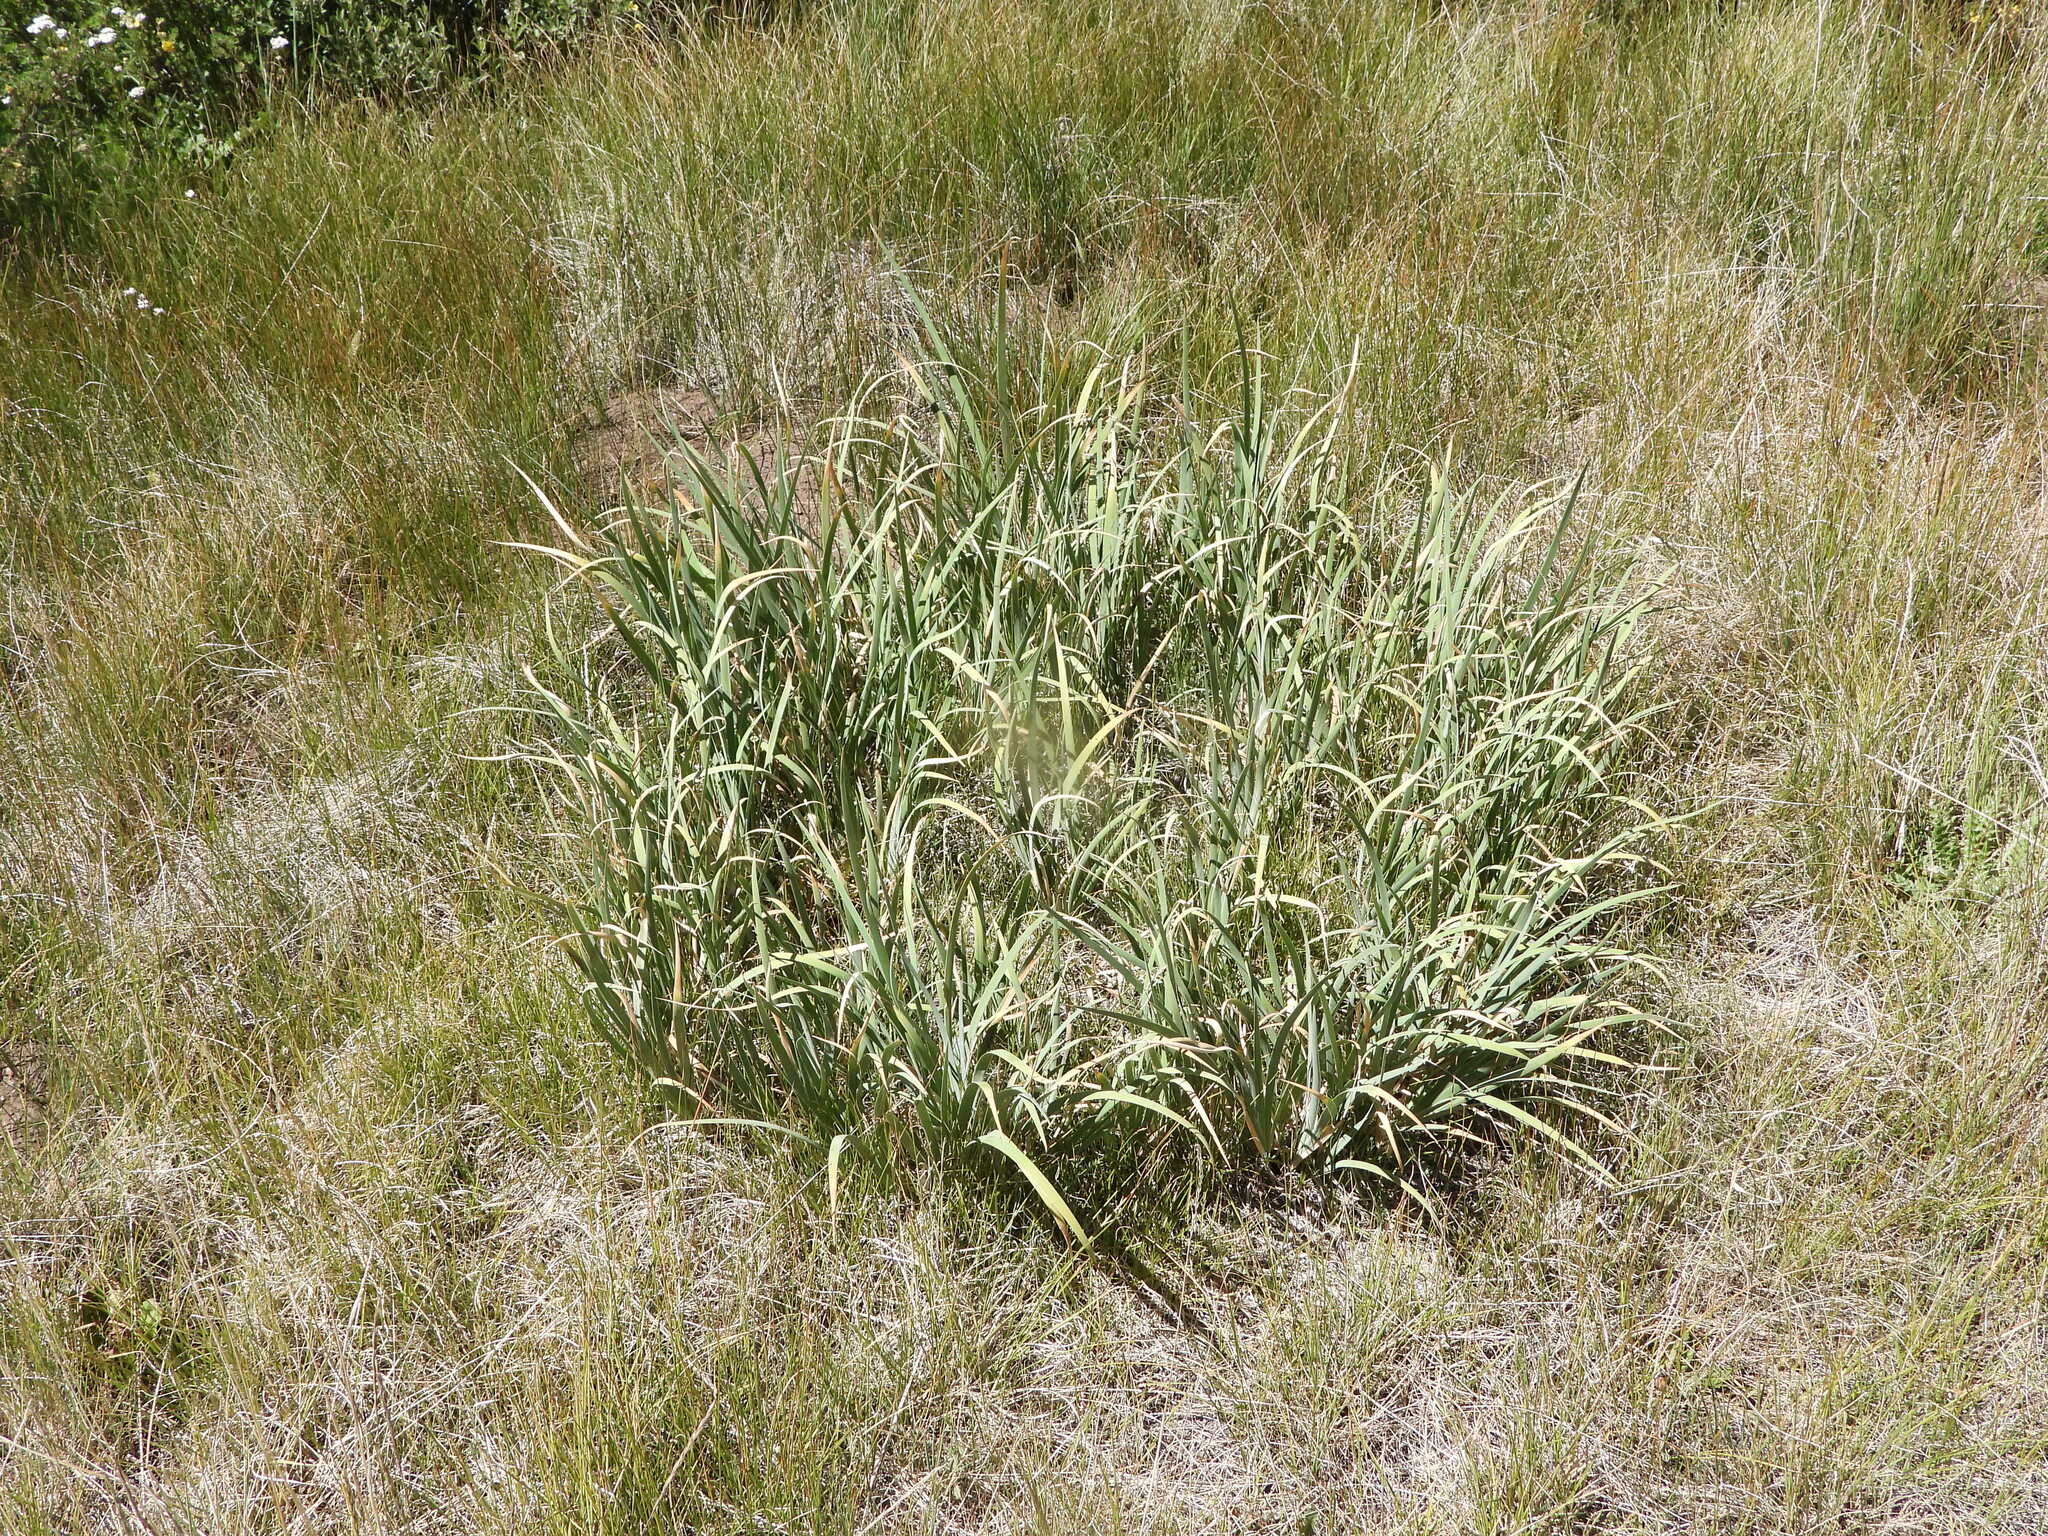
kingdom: Plantae
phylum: Tracheophyta
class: Liliopsida
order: Asparagales
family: Iridaceae
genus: Iris
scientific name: Iris missouriensis
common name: Rocky mountain iris
